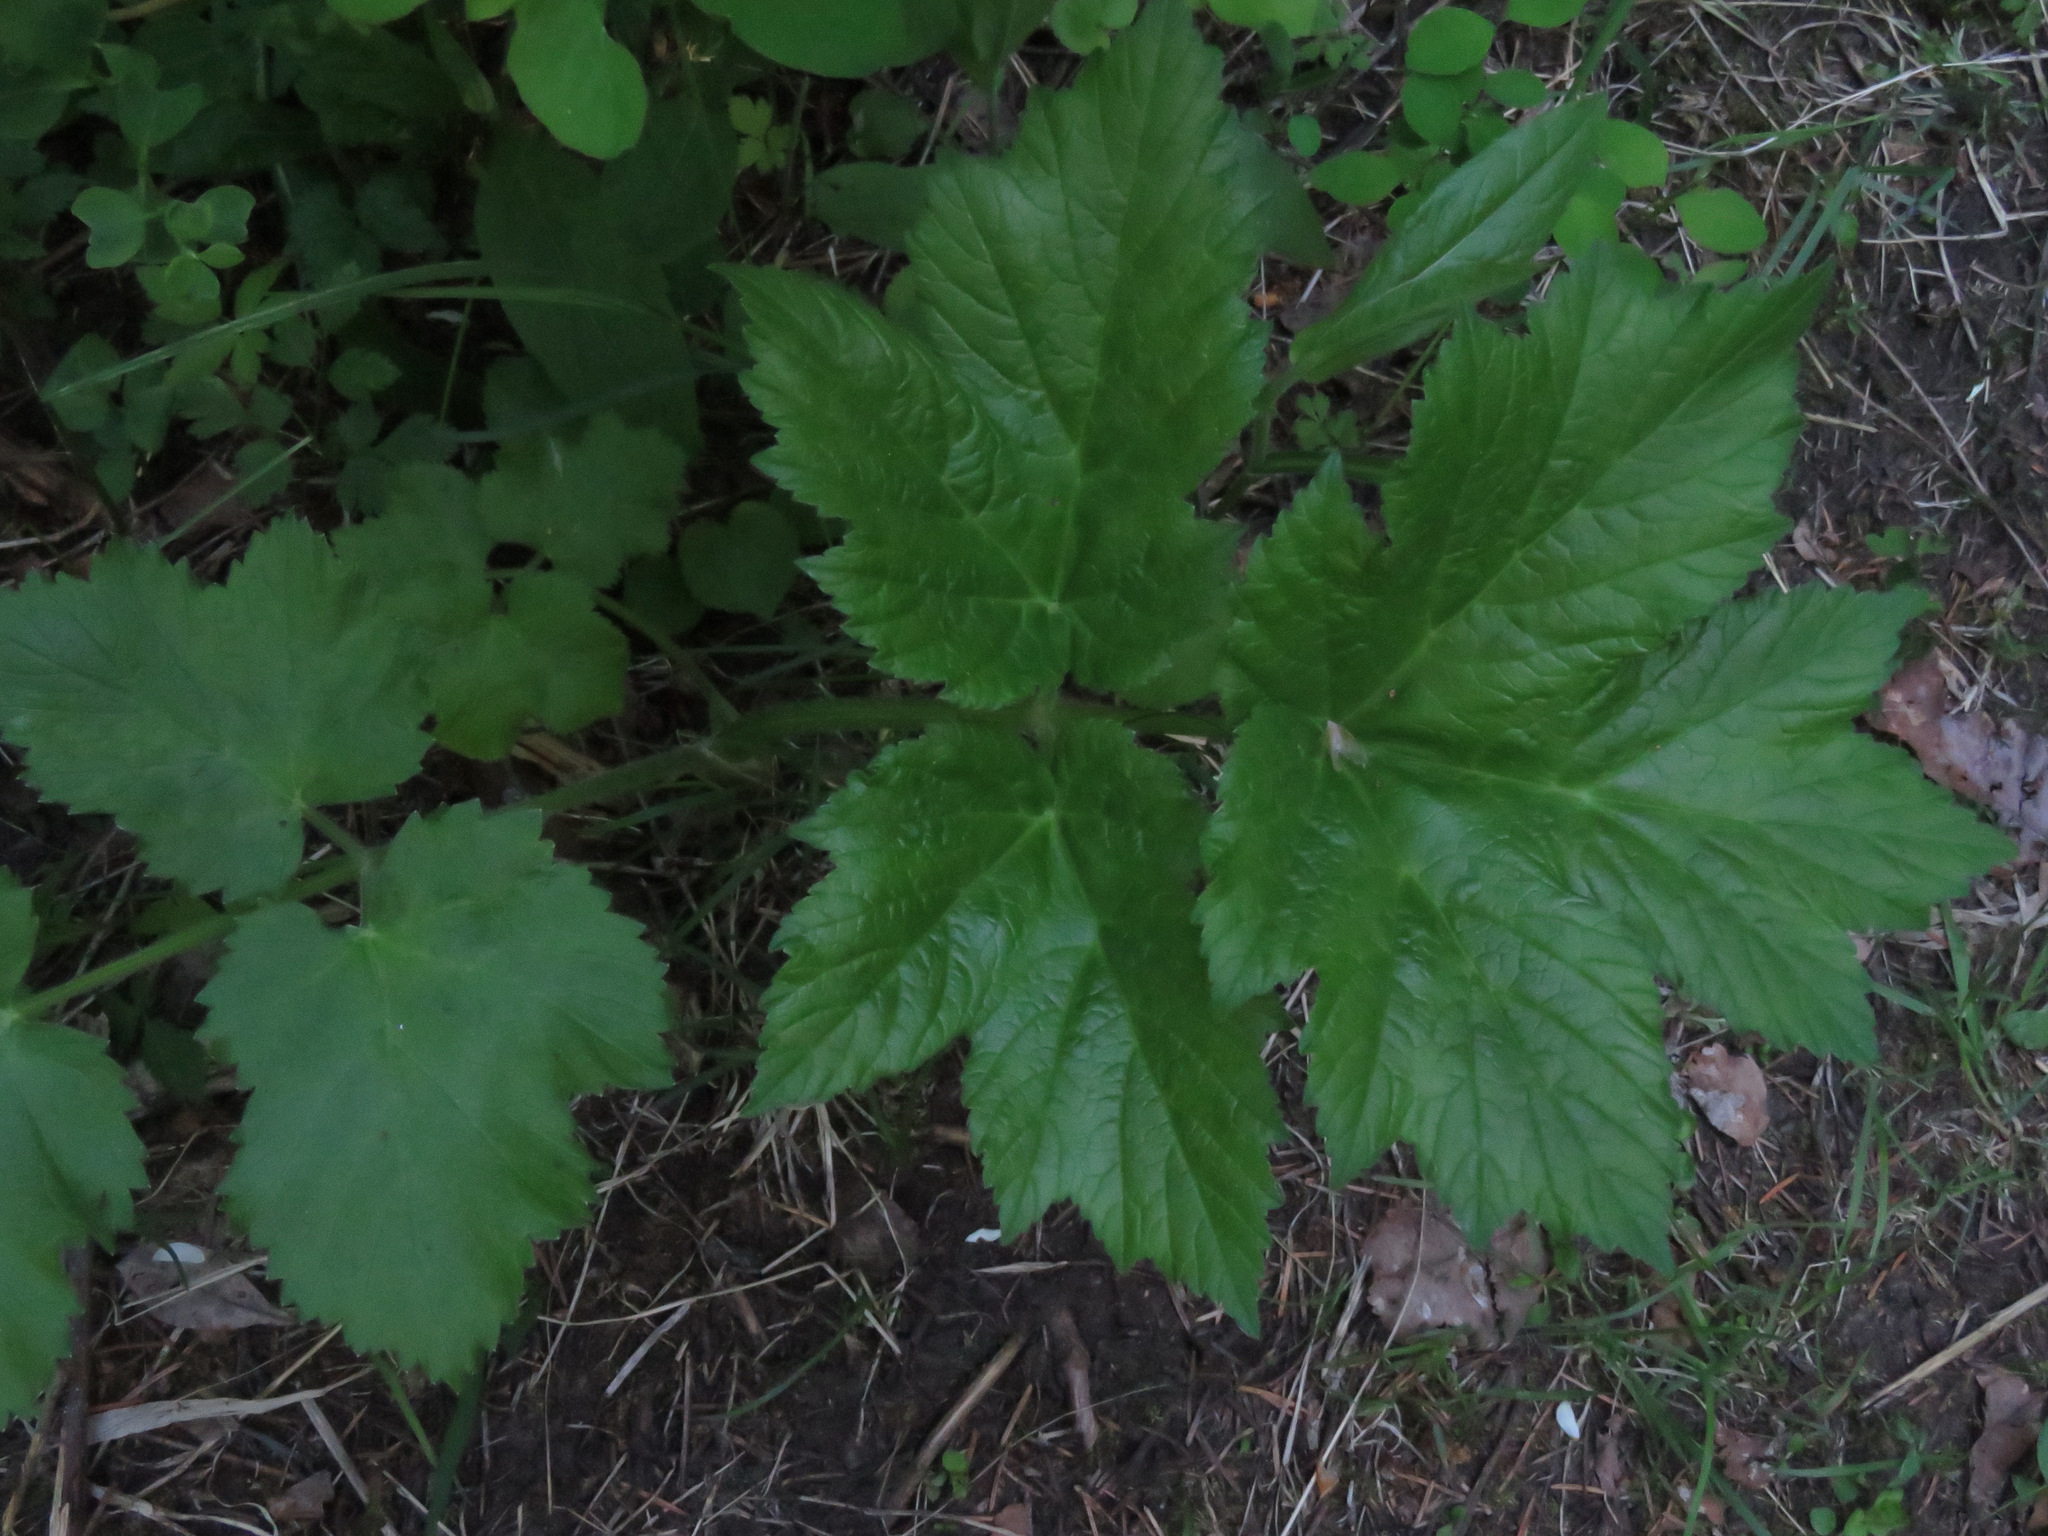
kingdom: Plantae
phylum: Tracheophyta
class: Magnoliopsida
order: Apiales
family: Apiaceae
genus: Heracleum
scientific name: Heracleum maximum
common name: American cow parsnip
